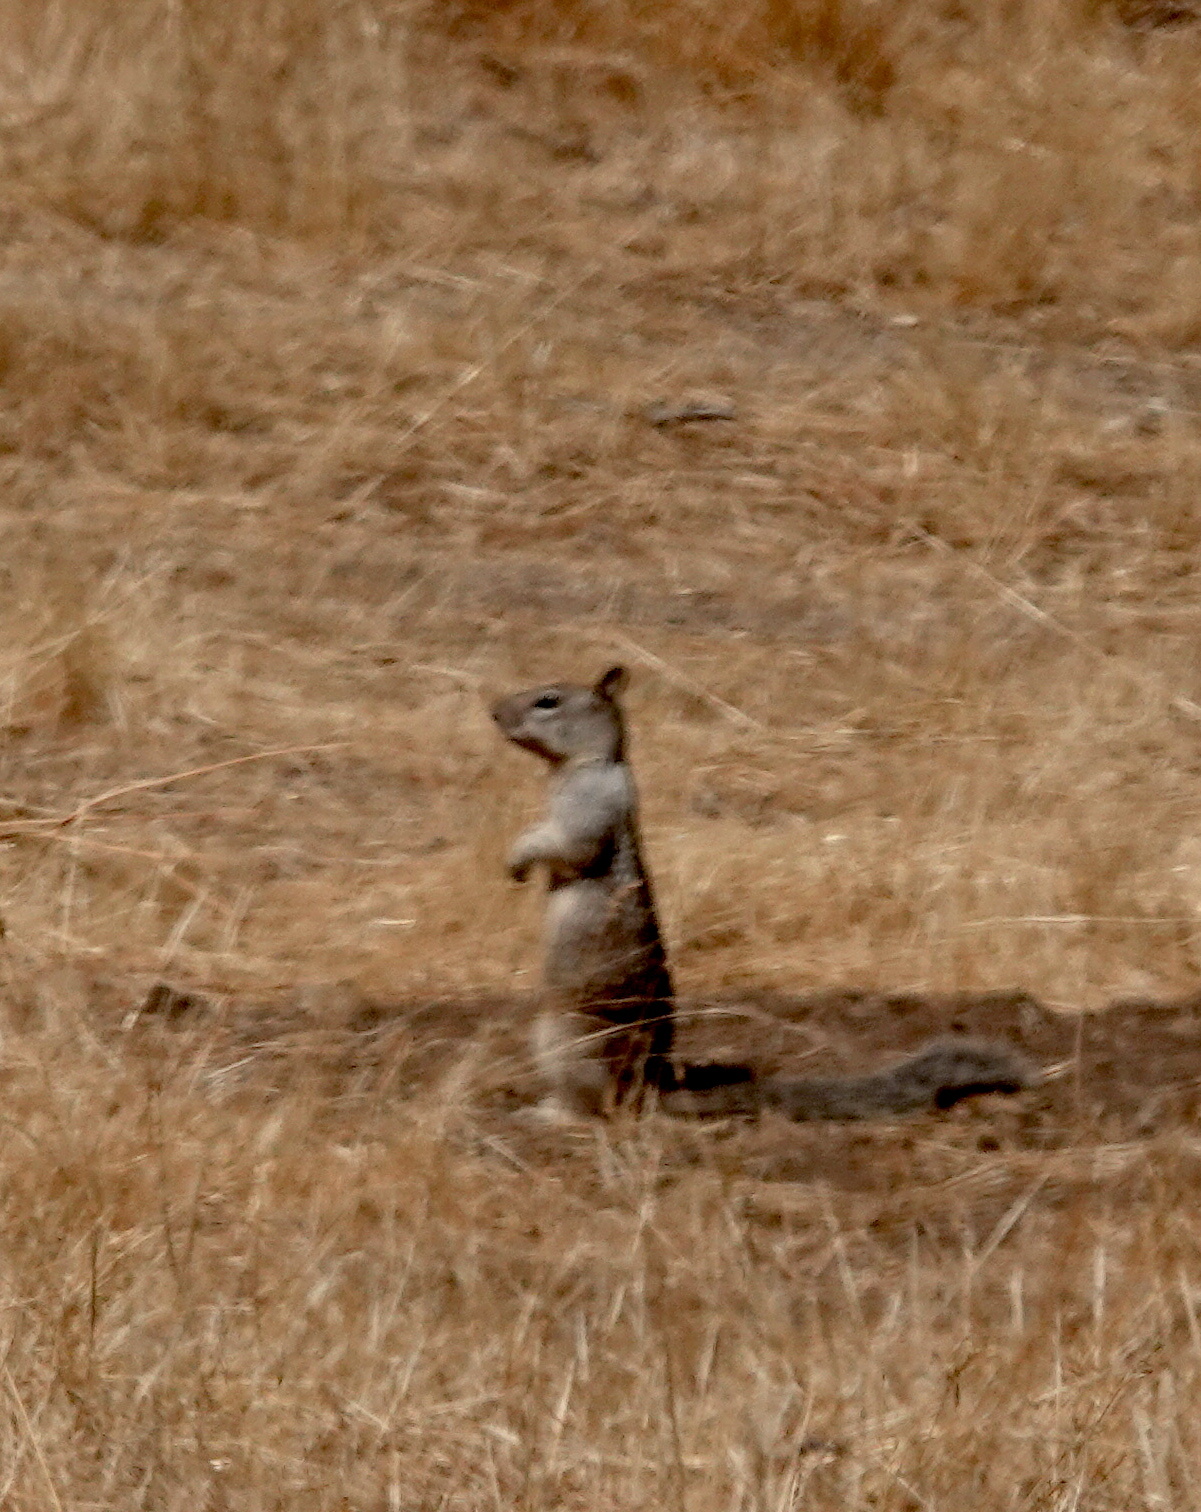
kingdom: Animalia
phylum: Chordata
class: Mammalia
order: Rodentia
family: Sciuridae
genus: Otospermophilus
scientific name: Otospermophilus beecheyi
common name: California ground squirrel
